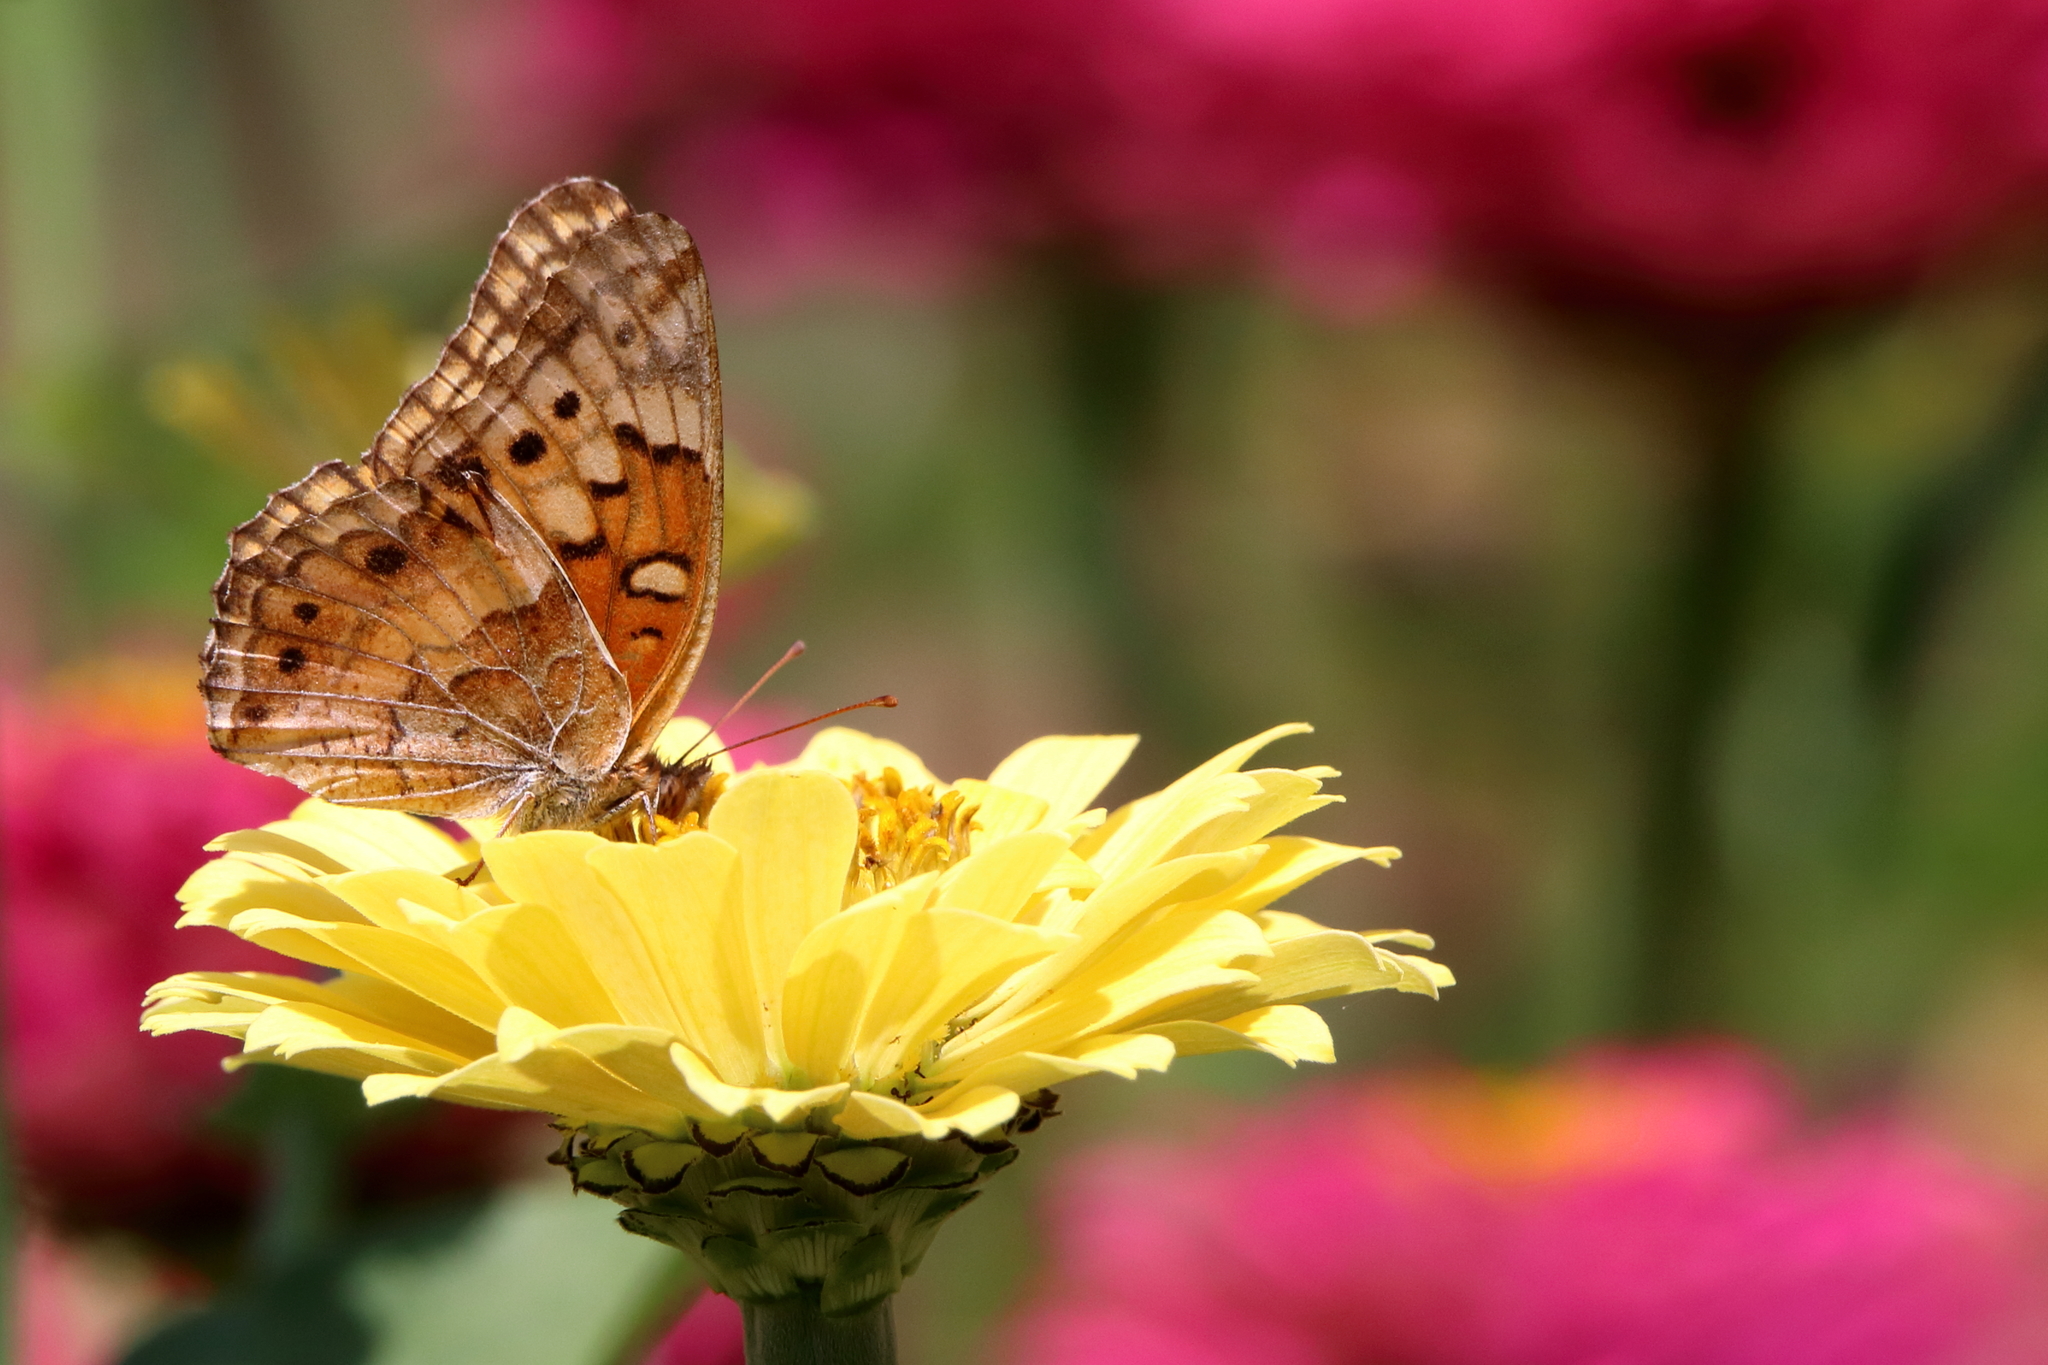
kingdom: Animalia
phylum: Arthropoda
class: Insecta
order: Lepidoptera
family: Nymphalidae
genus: Euptoieta
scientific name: Euptoieta claudia
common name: Variegated fritillary
